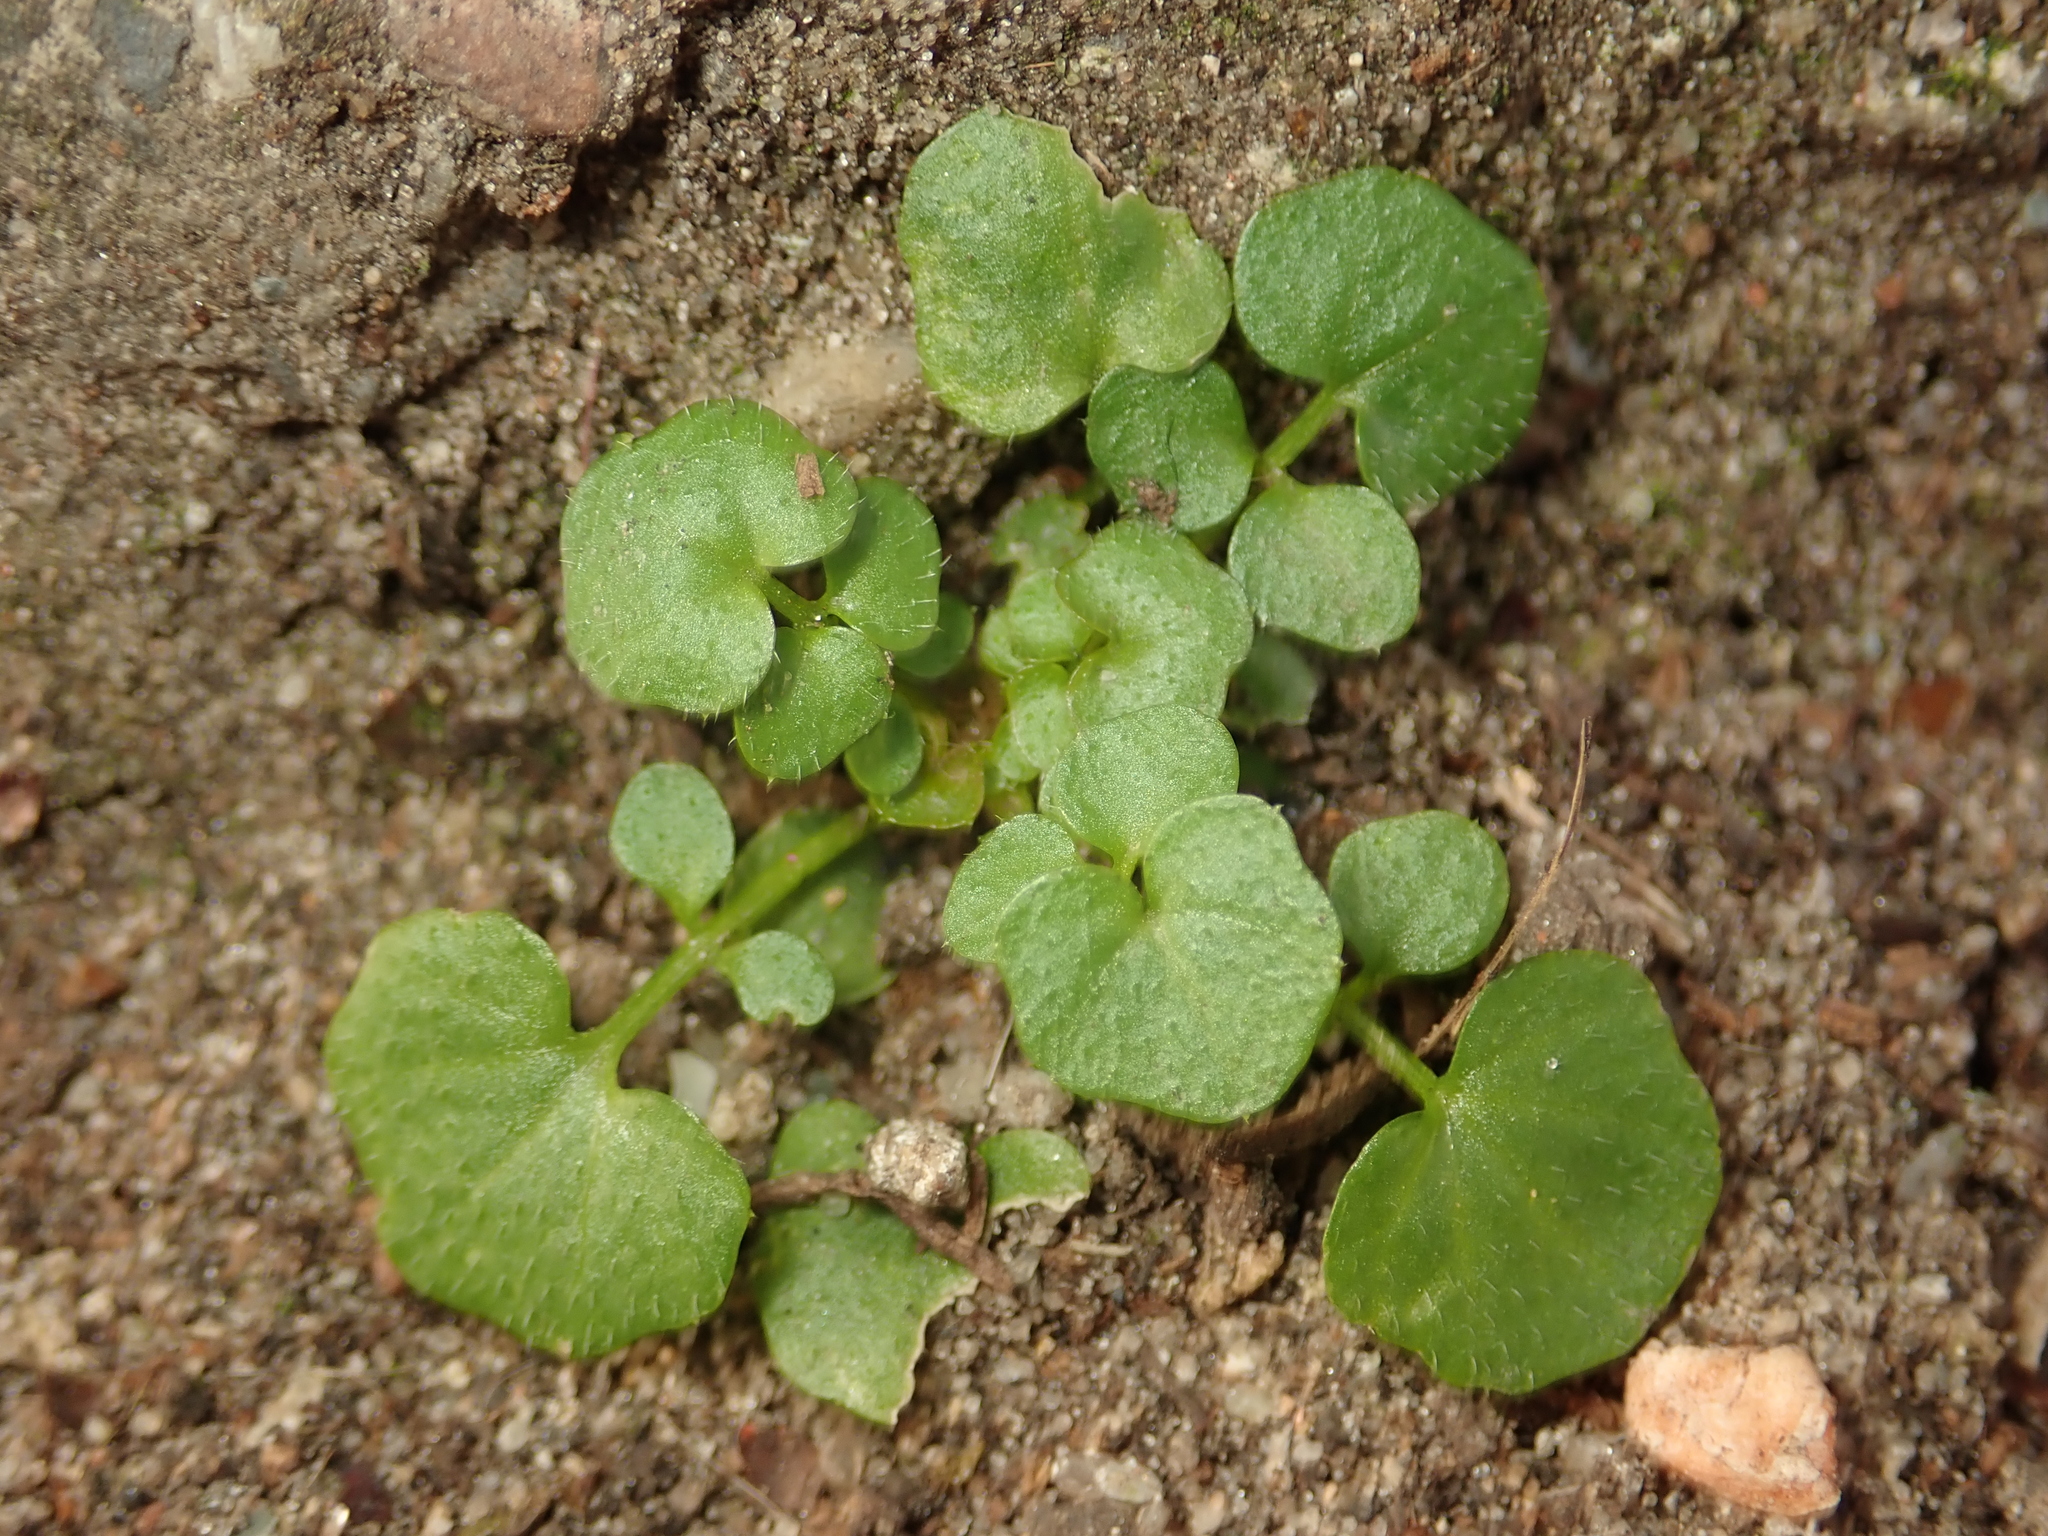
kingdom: Plantae
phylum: Tracheophyta
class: Magnoliopsida
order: Brassicales
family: Brassicaceae
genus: Cardamine
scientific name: Cardamine hirsuta
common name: Hairy bittercress
